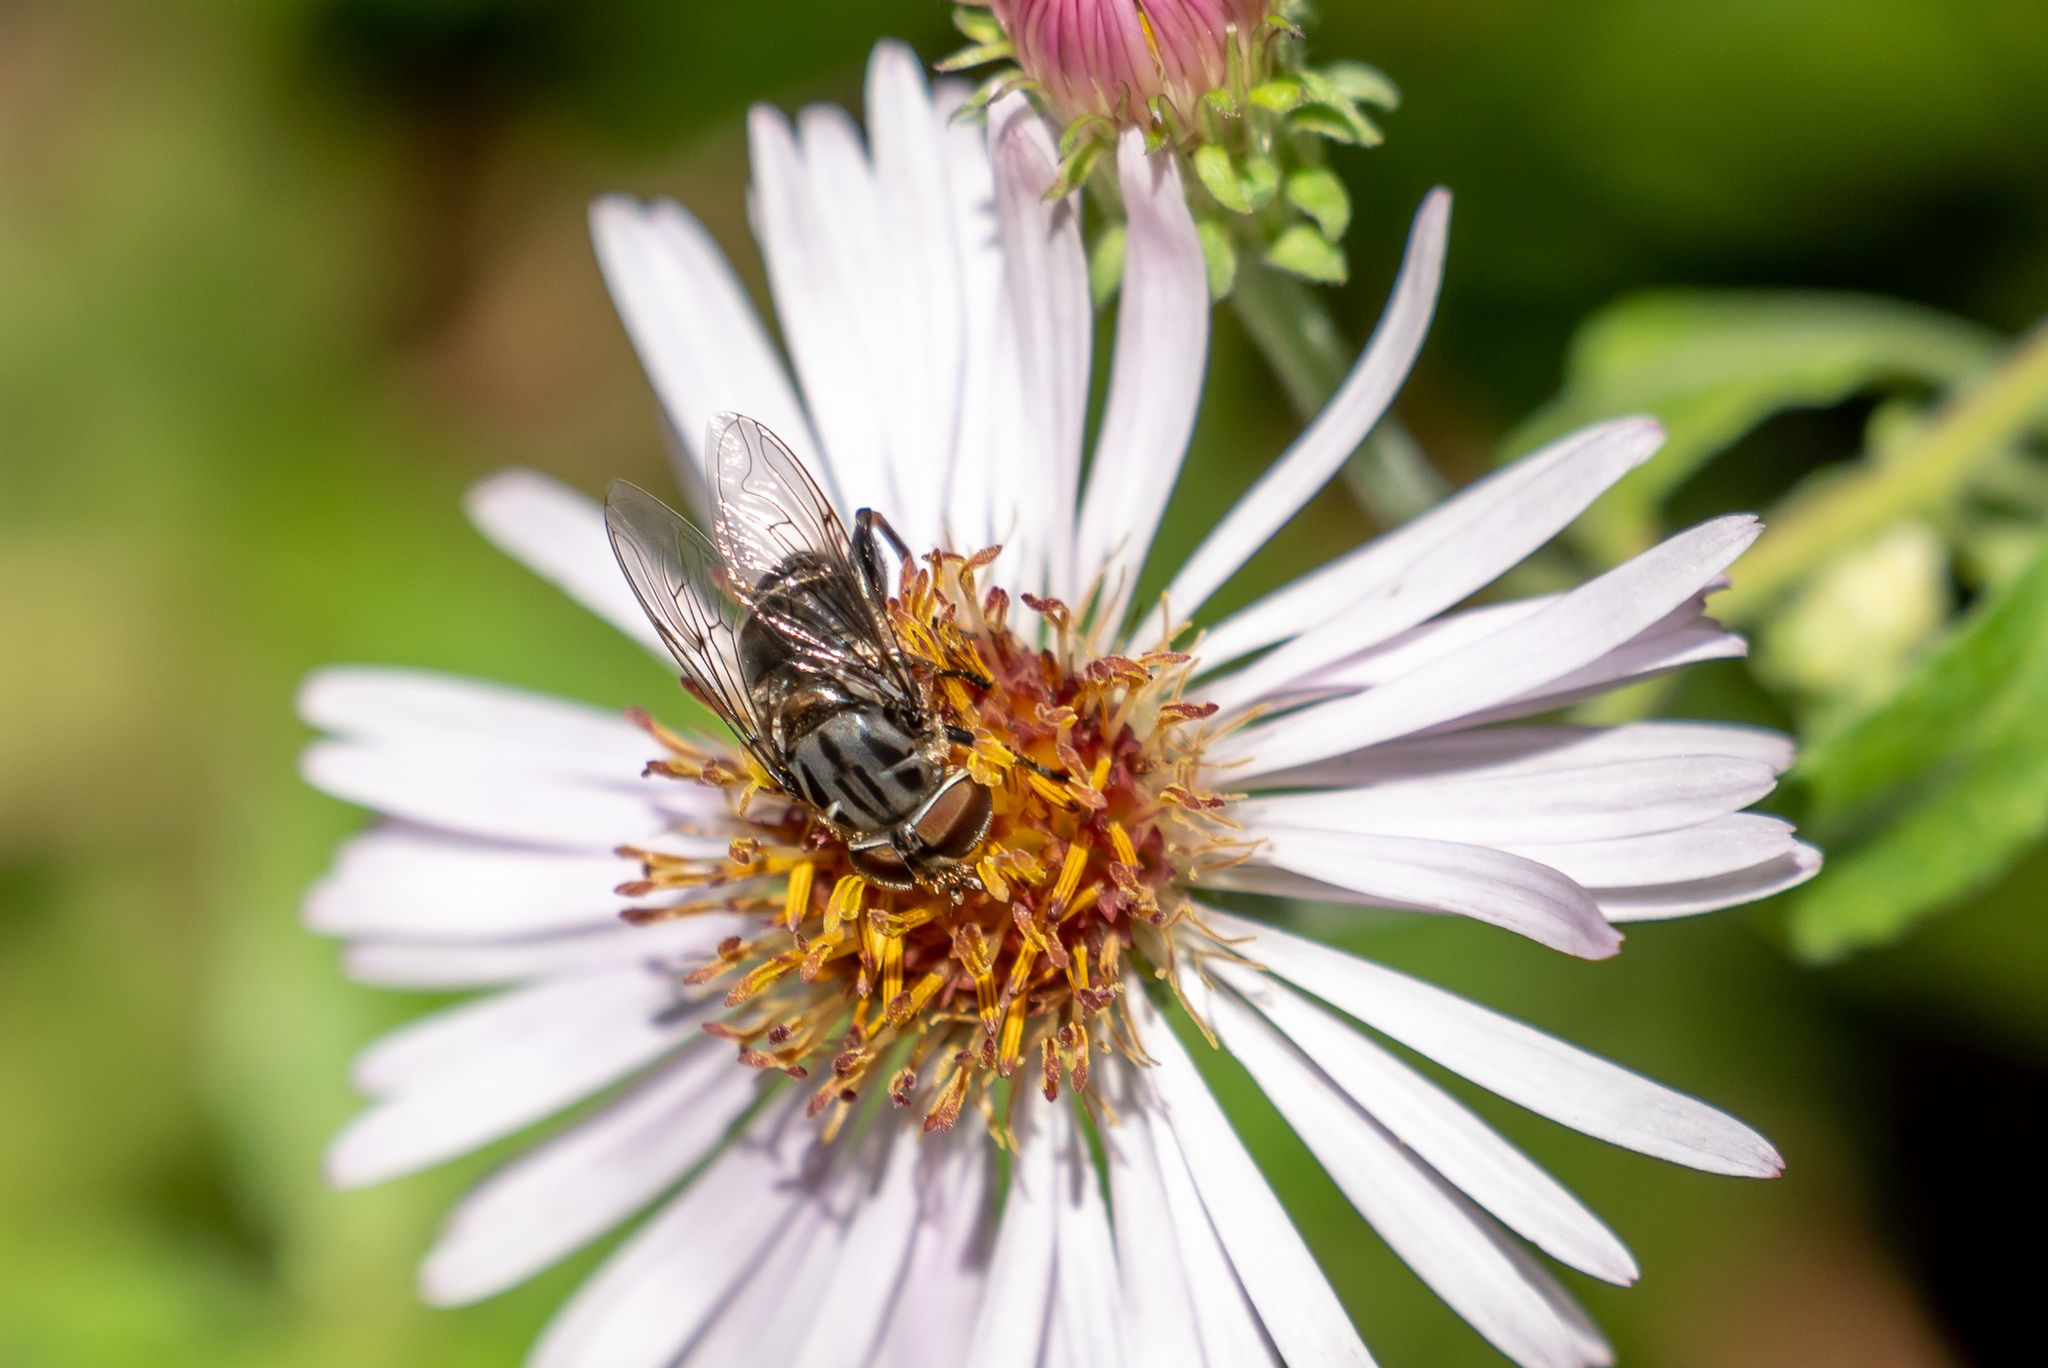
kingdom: Animalia
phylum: Arthropoda
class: Insecta
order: Diptera
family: Syrphidae
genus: Palpada
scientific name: Palpada furcata
